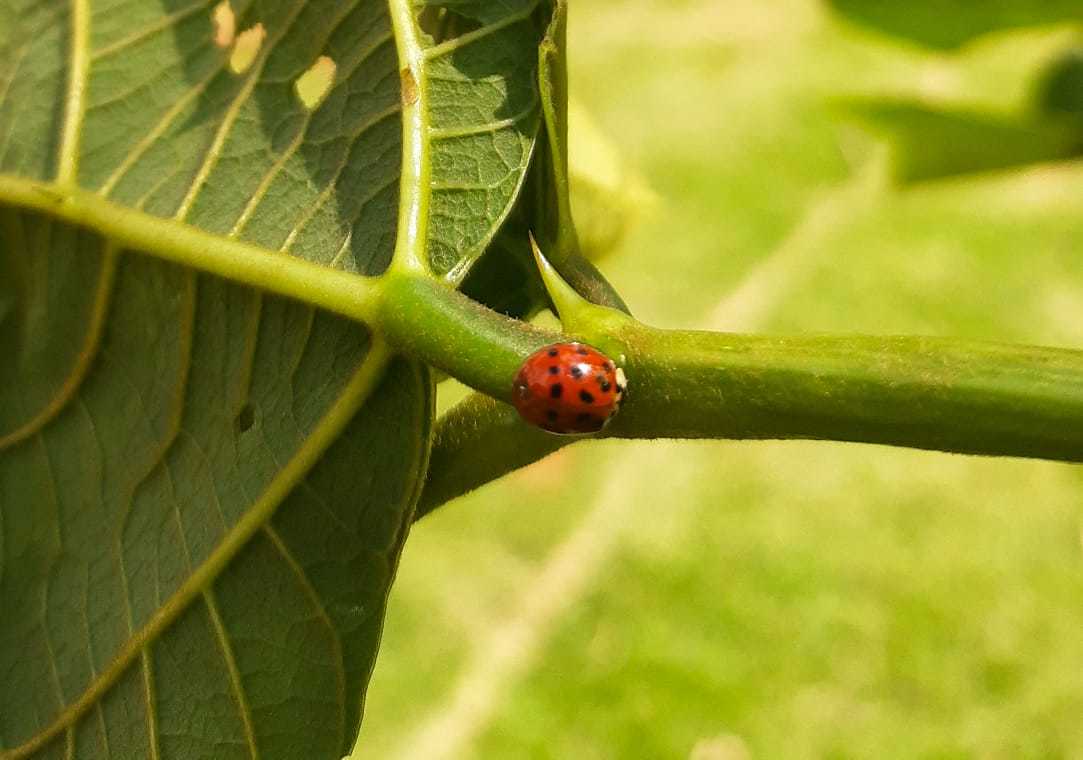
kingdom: Animalia
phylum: Arthropoda
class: Insecta
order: Coleoptera
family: Coccinellidae
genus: Harmonia
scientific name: Harmonia axyridis
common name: Harlequin ladybird
